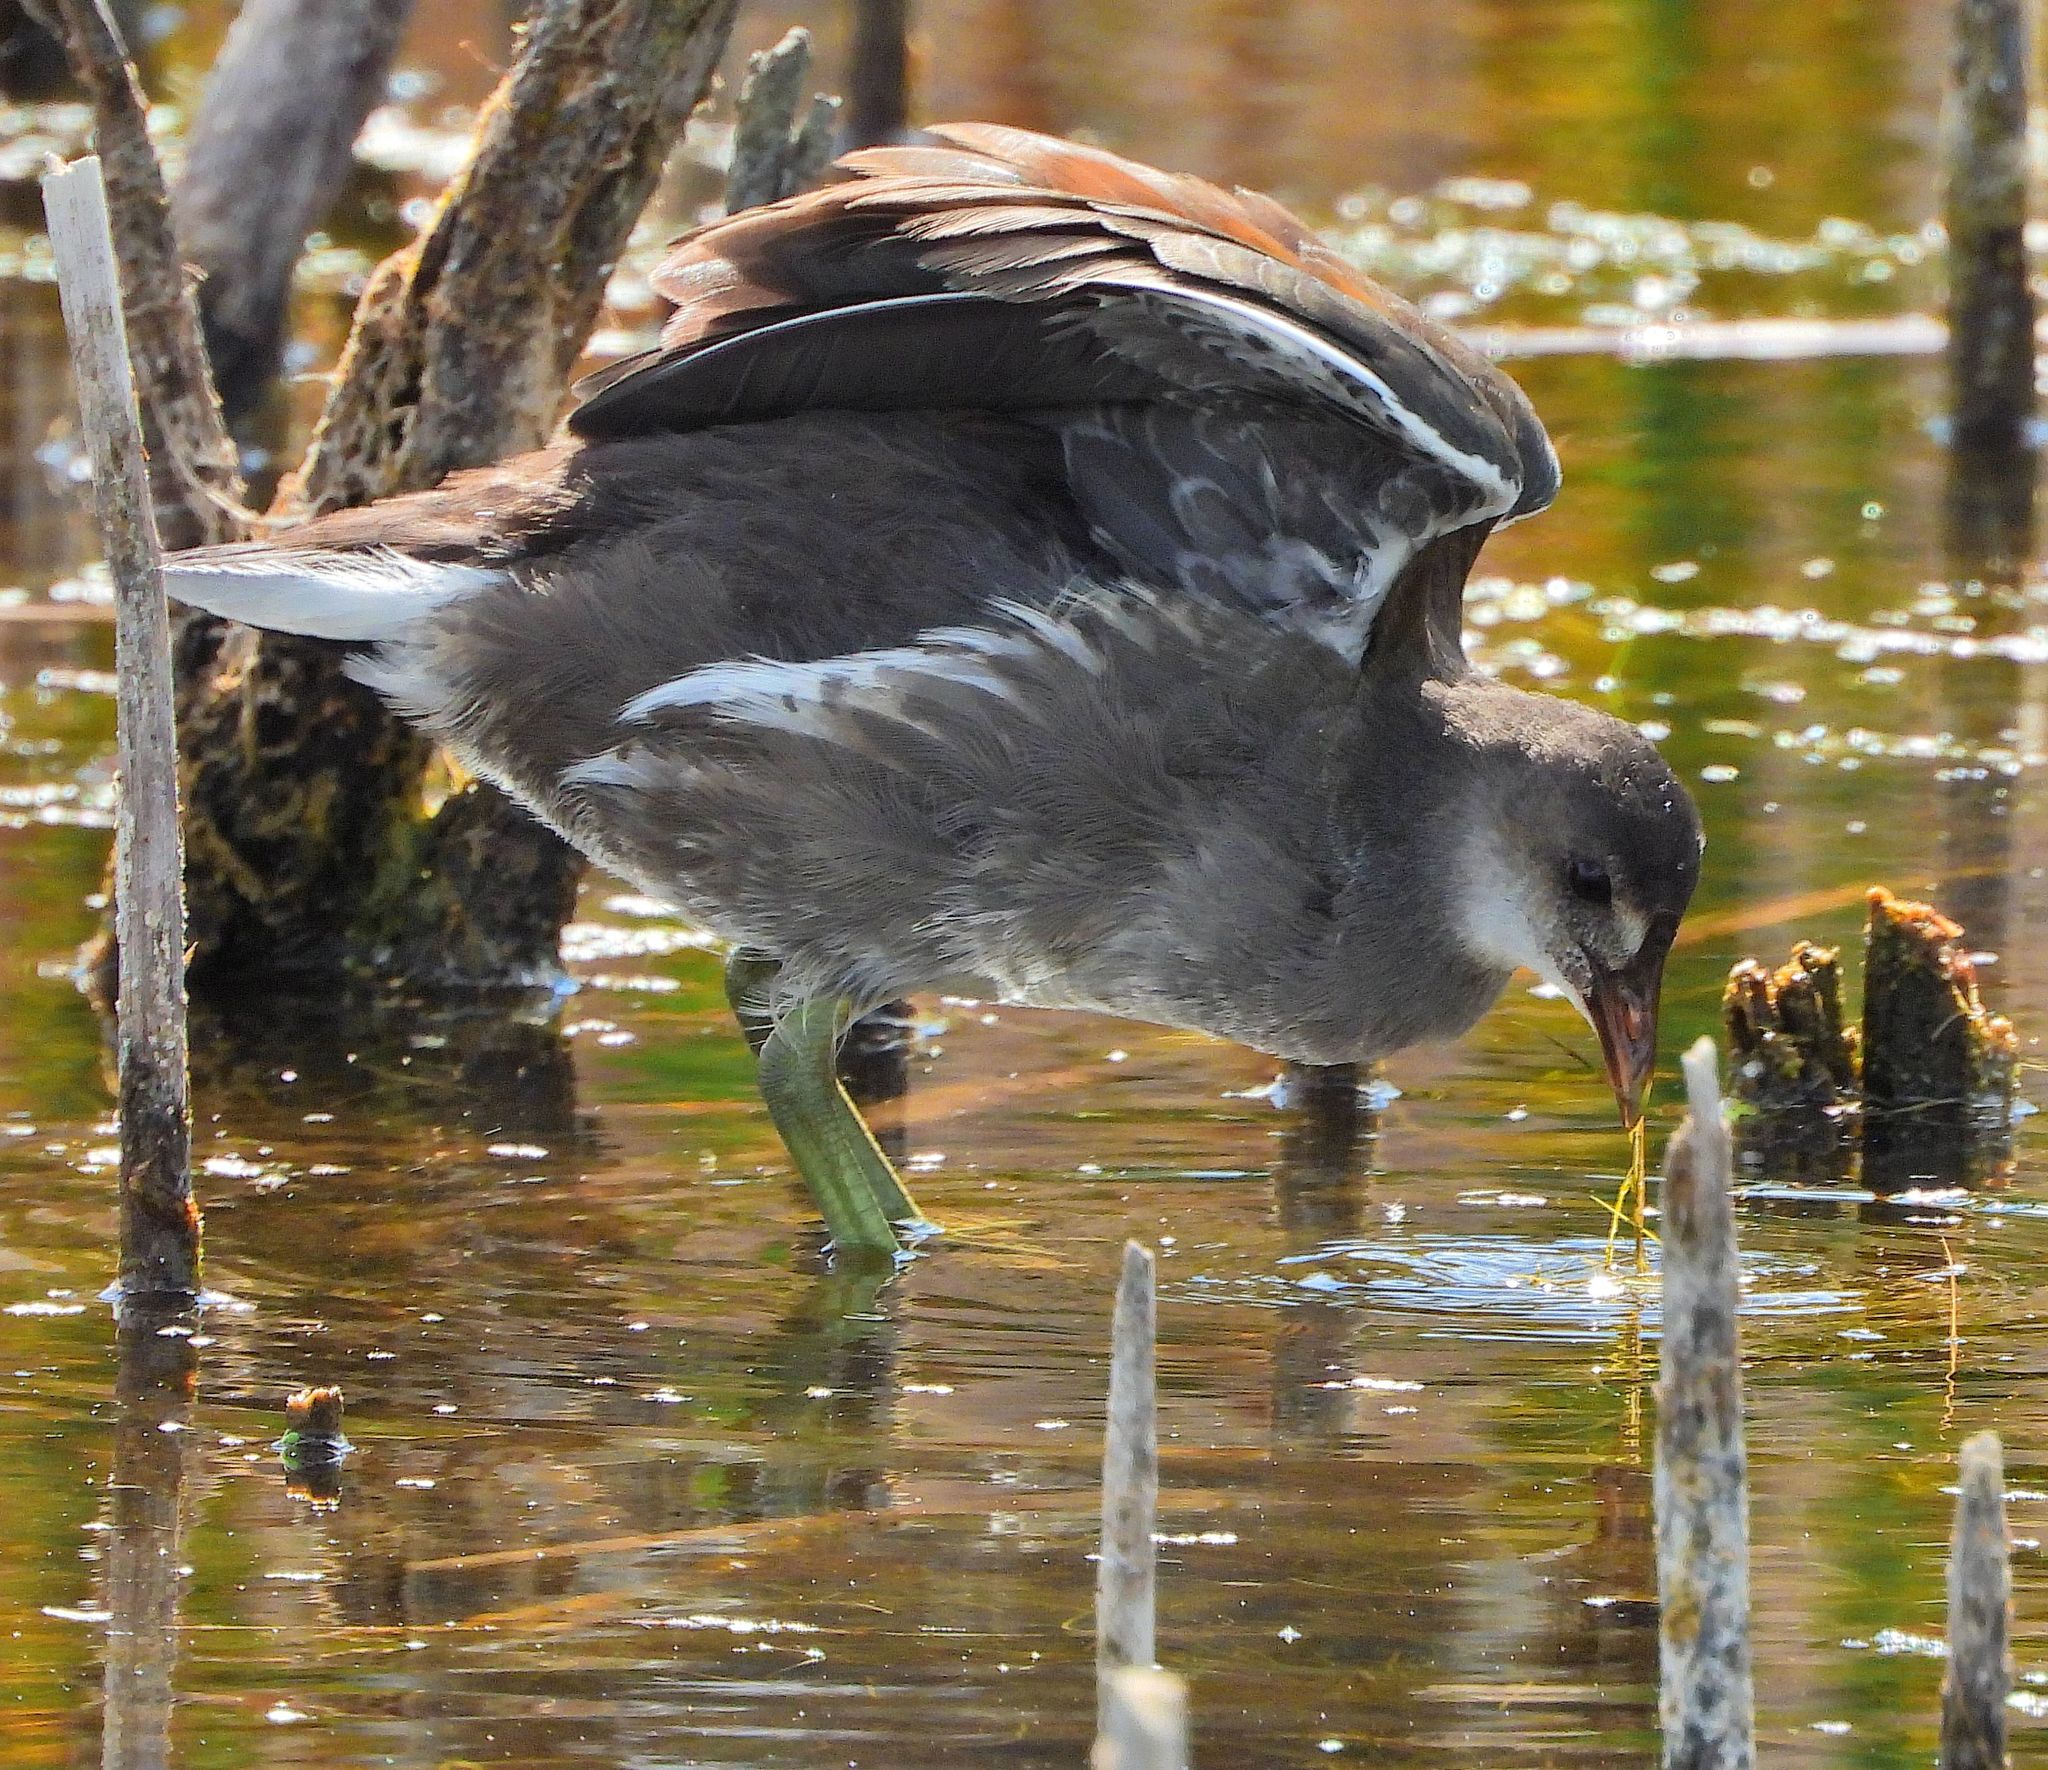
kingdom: Animalia
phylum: Chordata
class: Aves
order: Gruiformes
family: Rallidae
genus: Gallinula
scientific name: Gallinula chloropus
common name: Common moorhen
